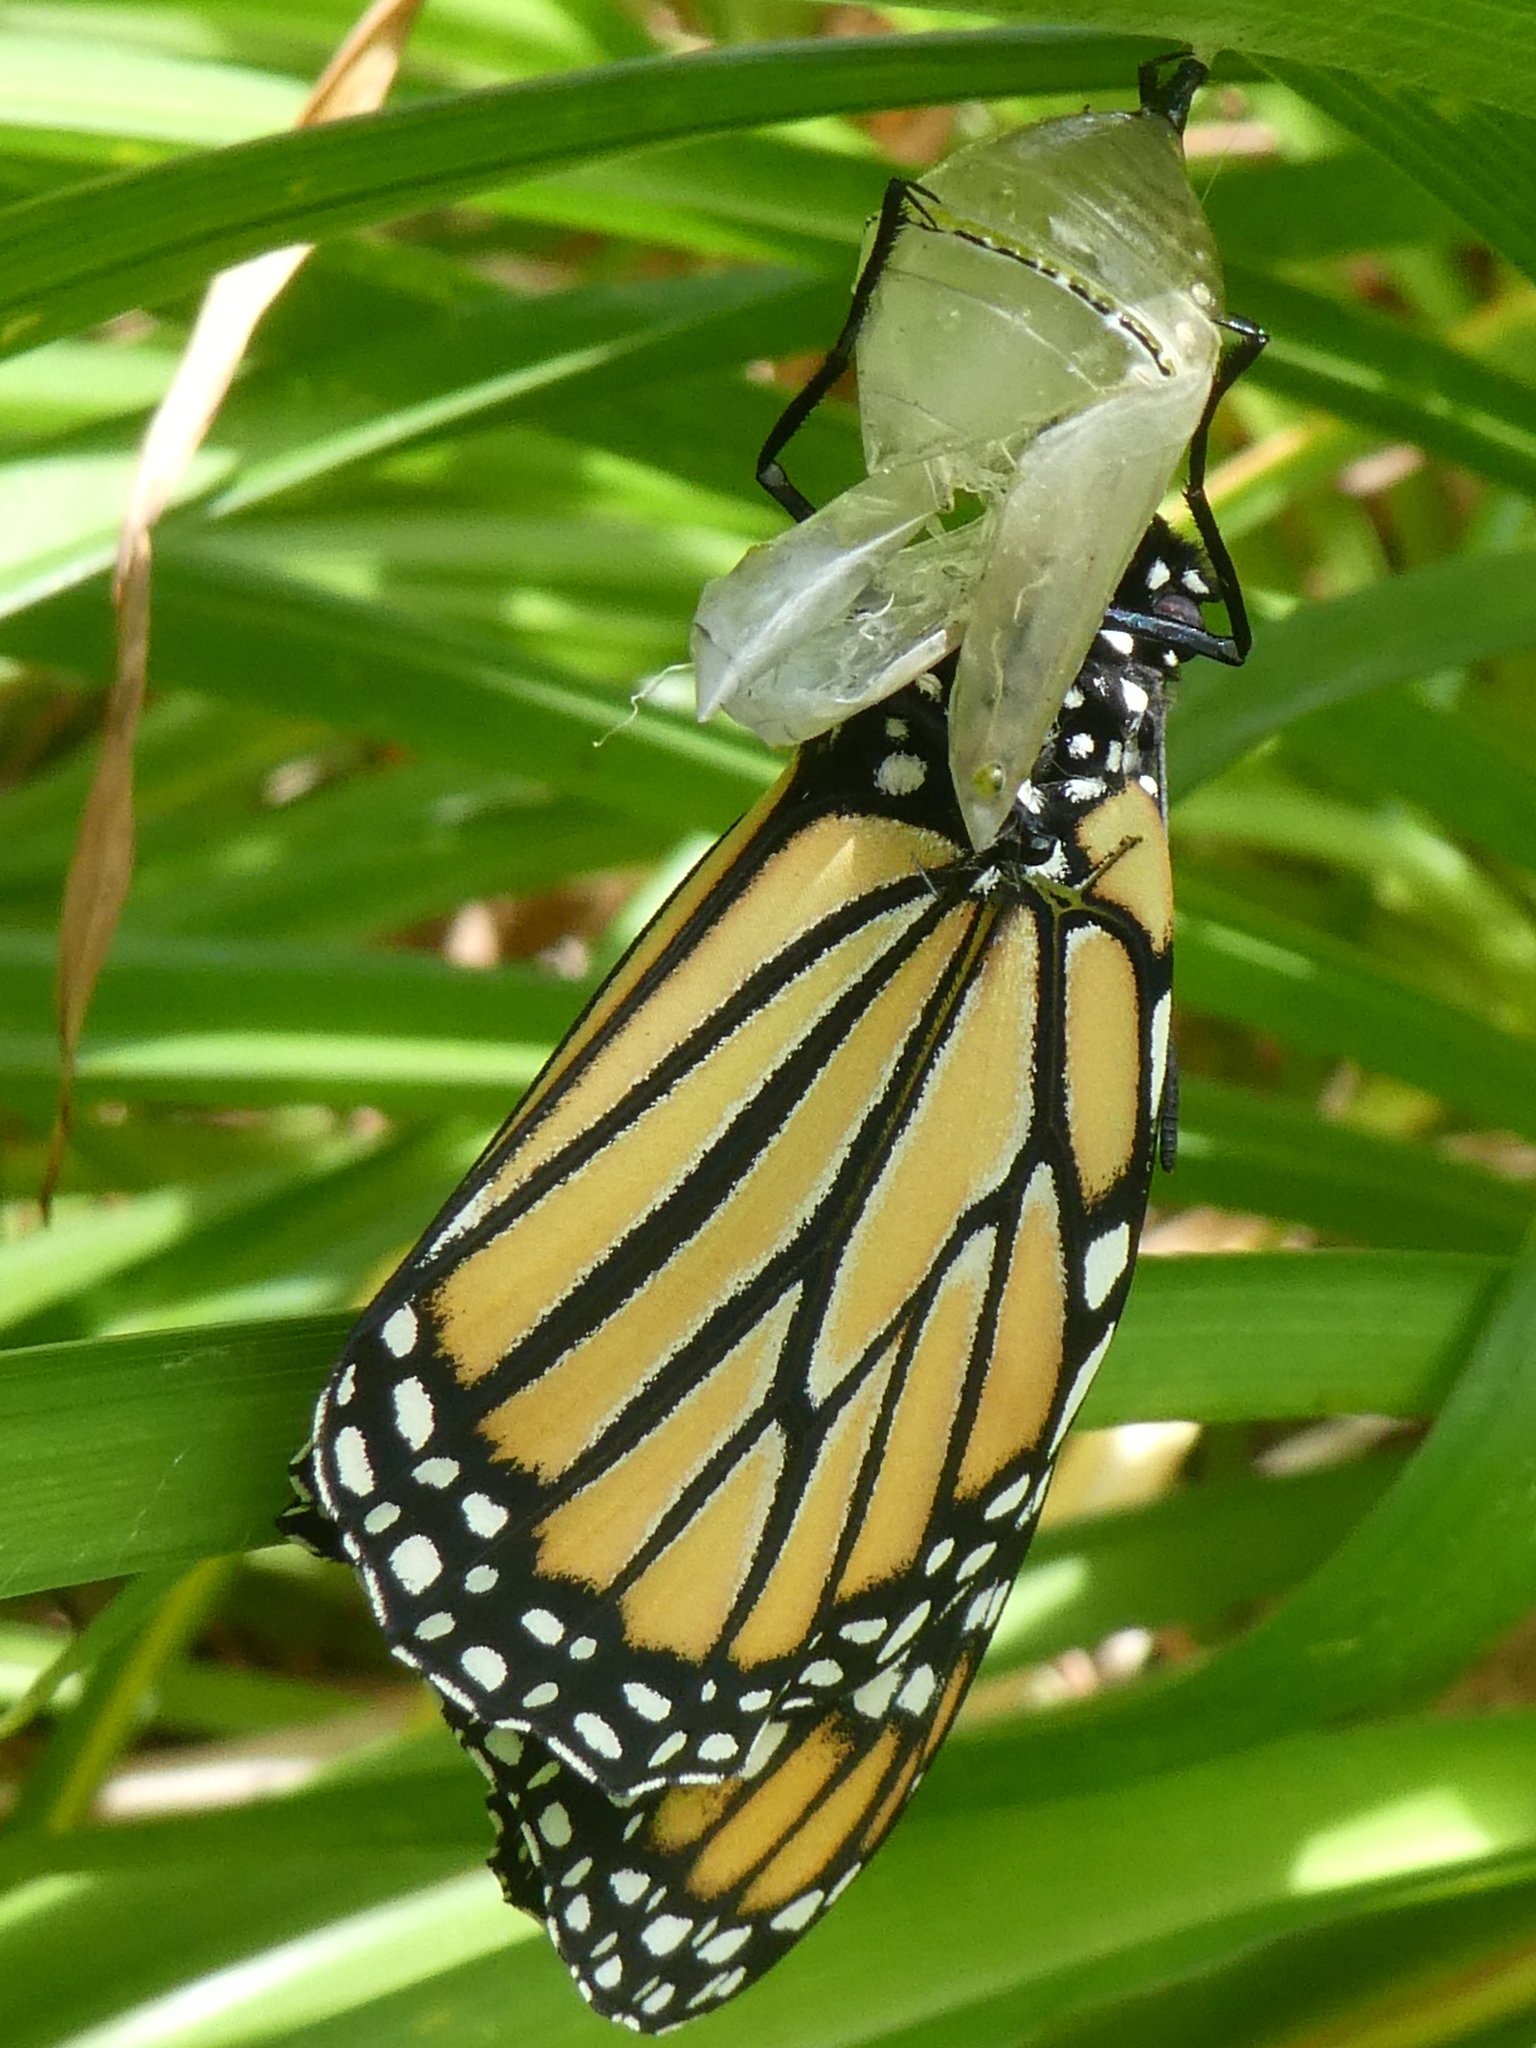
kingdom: Animalia
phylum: Arthropoda
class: Insecta
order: Lepidoptera
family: Nymphalidae
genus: Danaus
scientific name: Danaus plexippus
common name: Monarch
